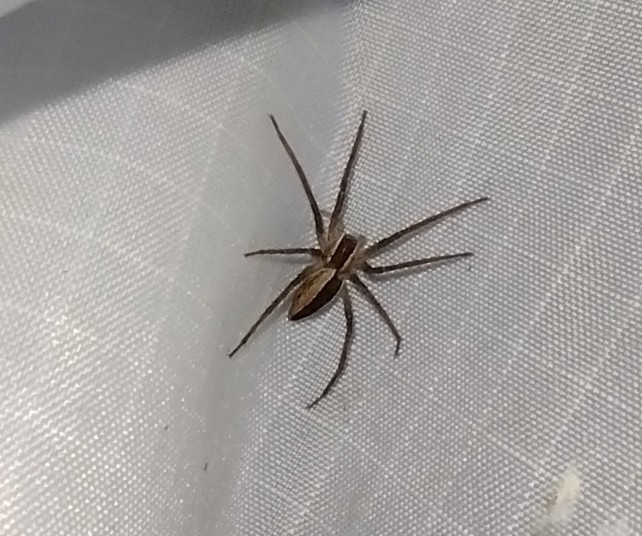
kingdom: Animalia
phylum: Arthropoda
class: Arachnida
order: Araneae
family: Pisauridae
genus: Pisaurina
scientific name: Pisaurina mira
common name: American nursery web spider
